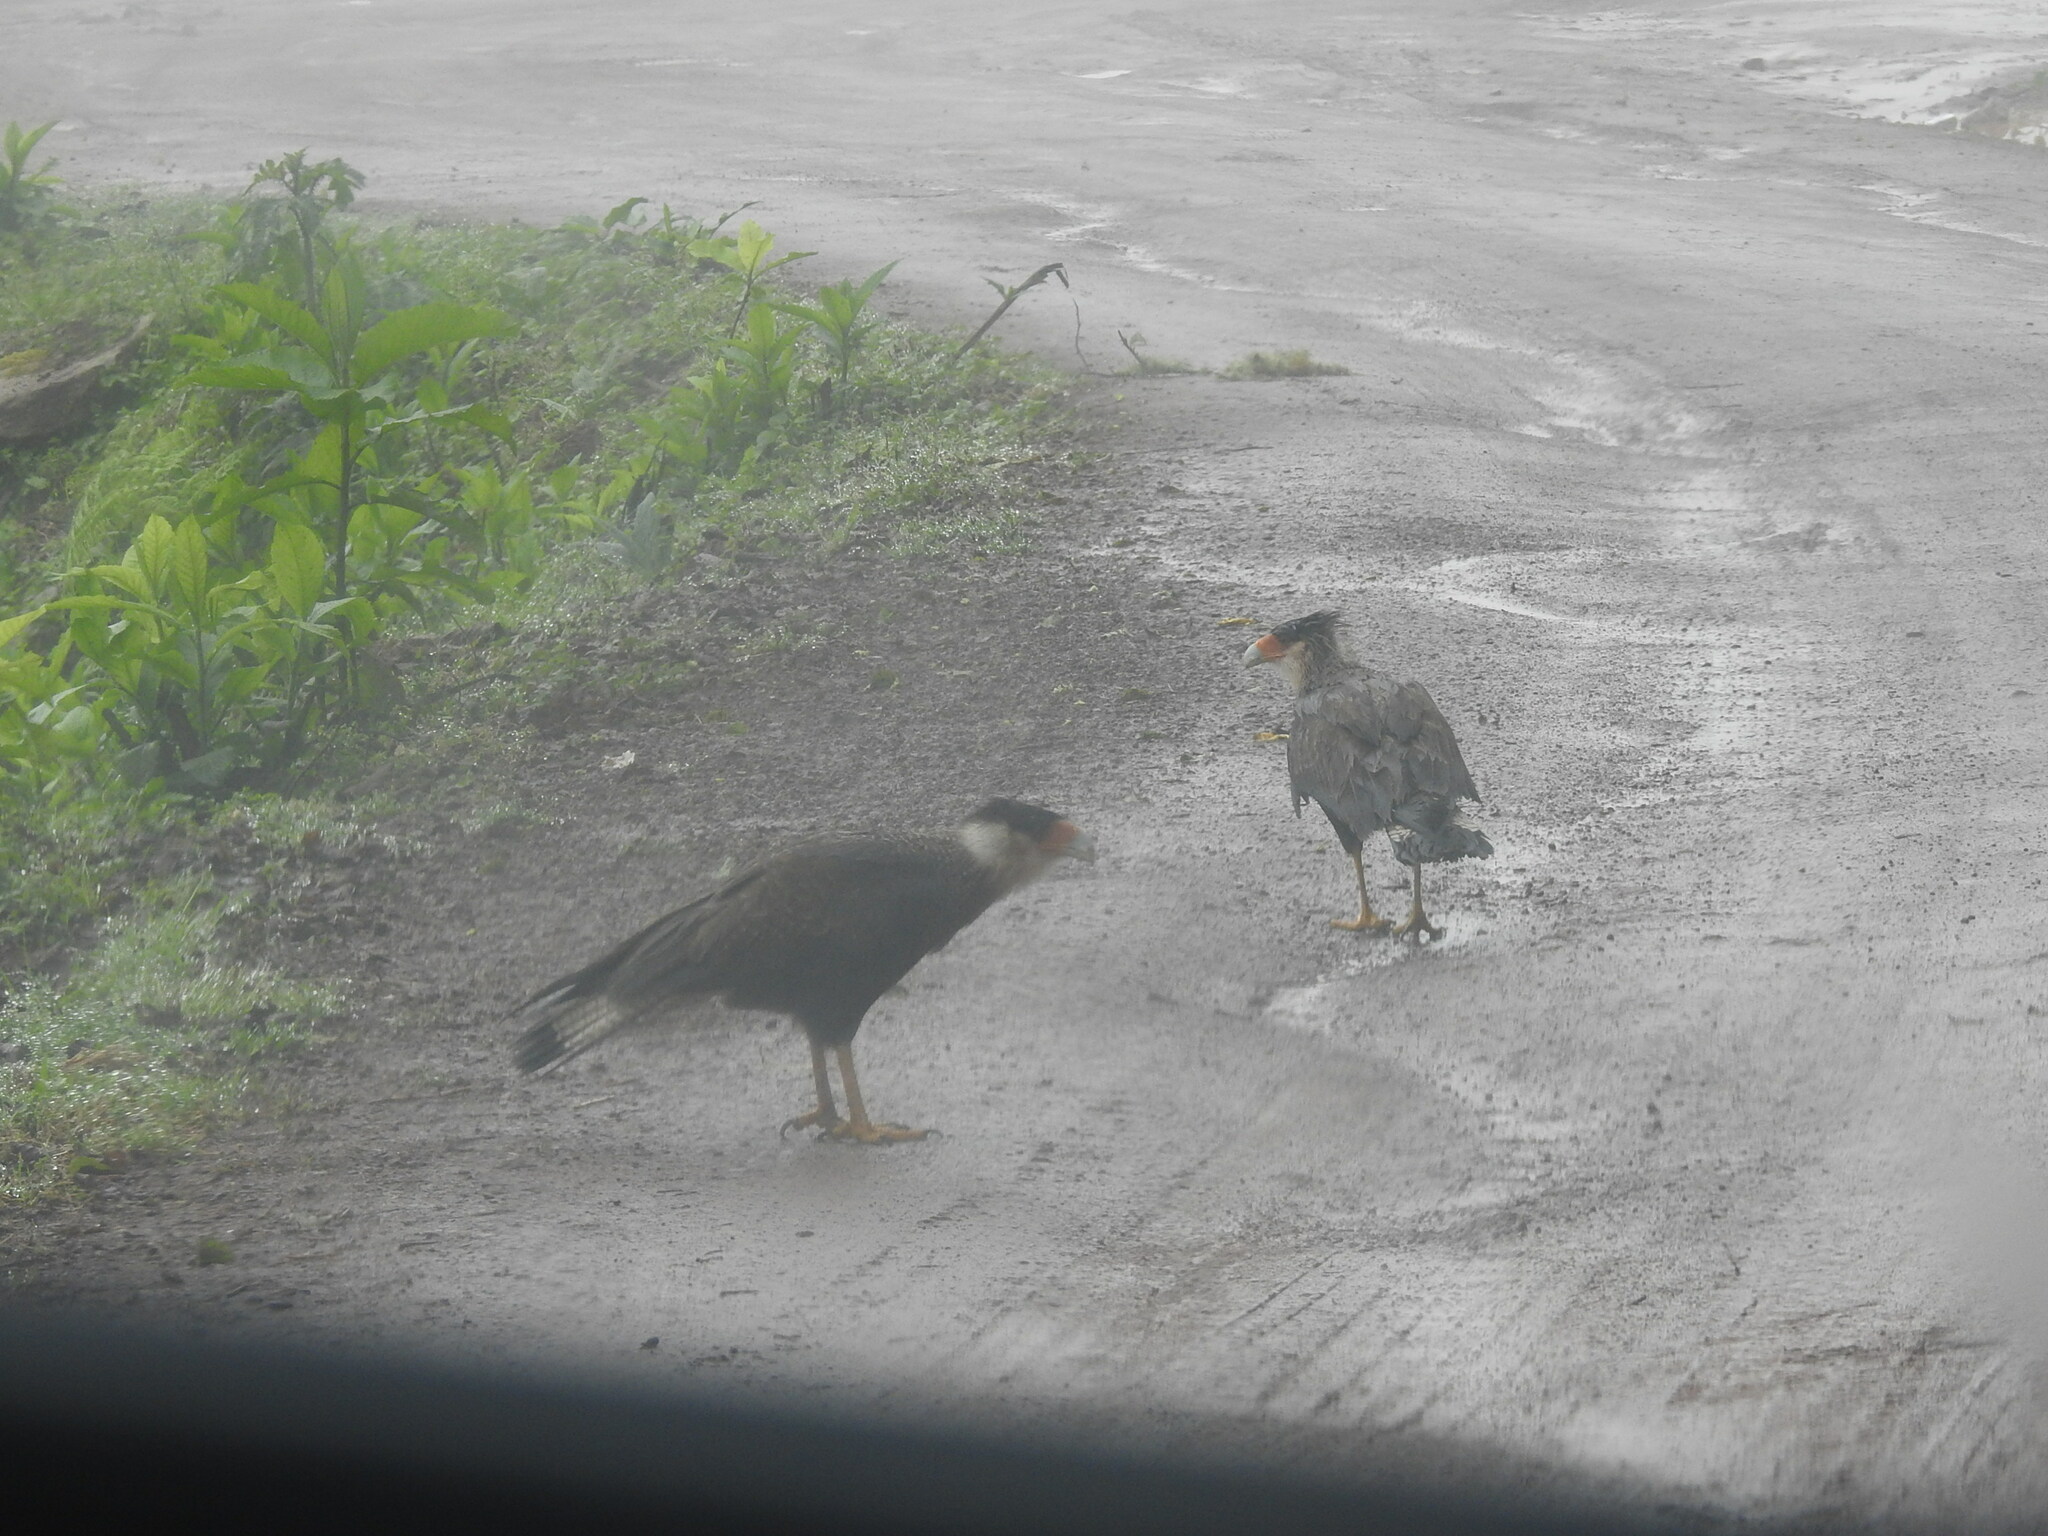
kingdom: Animalia
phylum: Chordata
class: Aves
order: Falconiformes
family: Falconidae
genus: Caracara
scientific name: Caracara plancus
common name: Southern caracara
